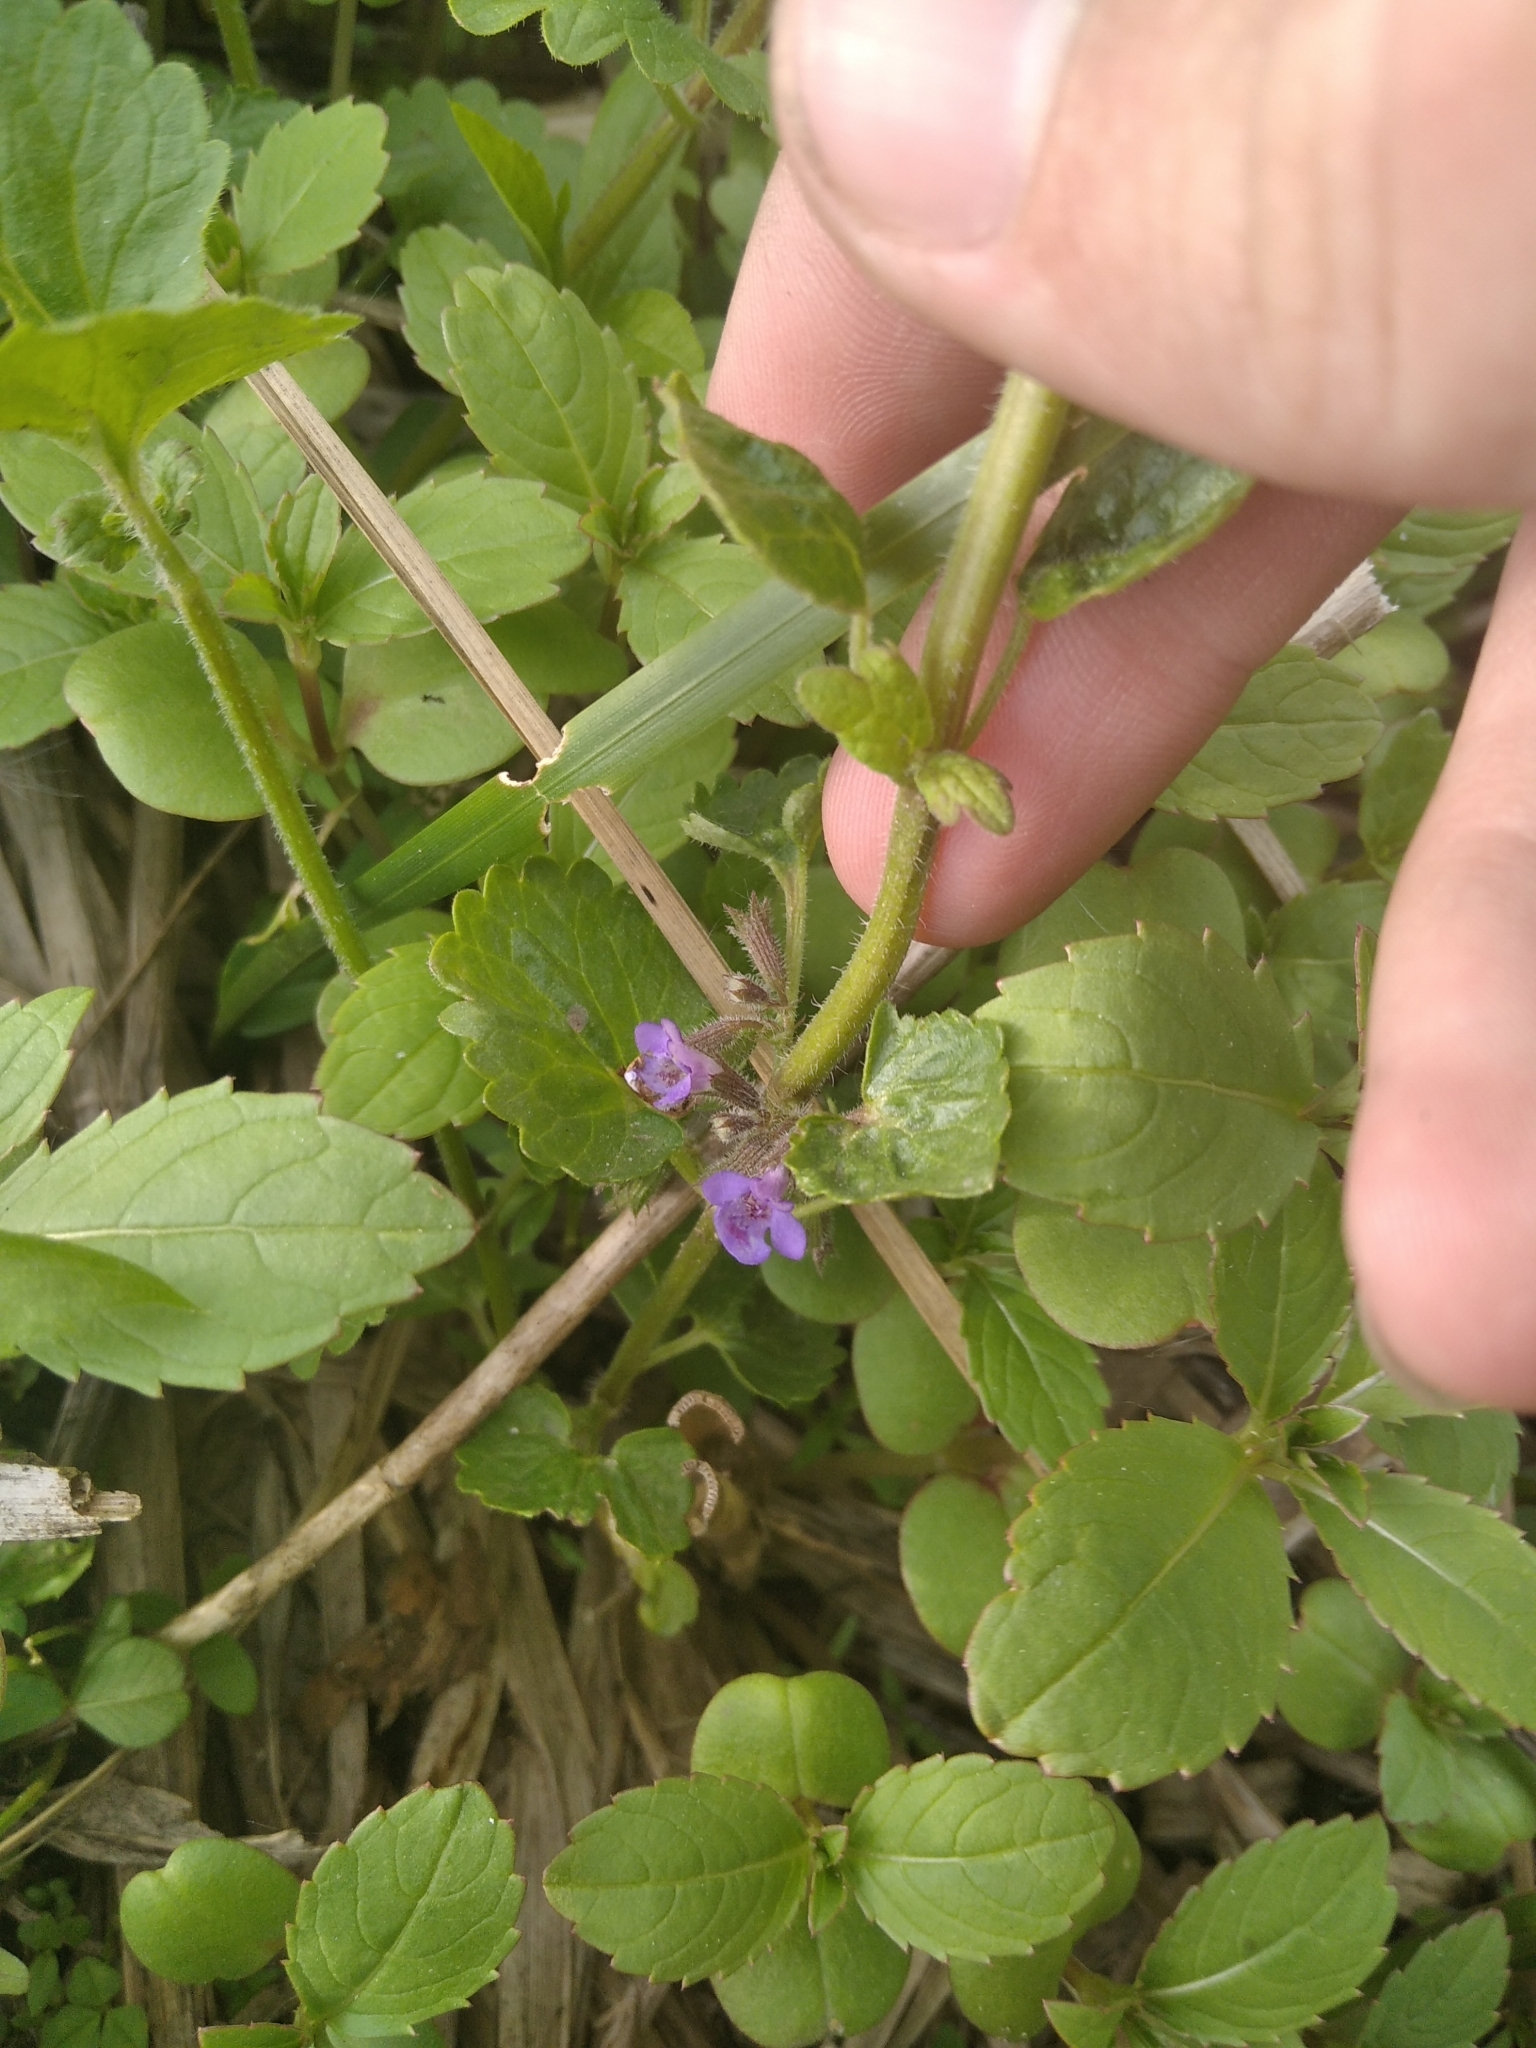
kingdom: Plantae
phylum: Tracheophyta
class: Magnoliopsida
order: Lamiales
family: Lamiaceae
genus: Glechoma
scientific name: Glechoma hederacea
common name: Ground ivy
